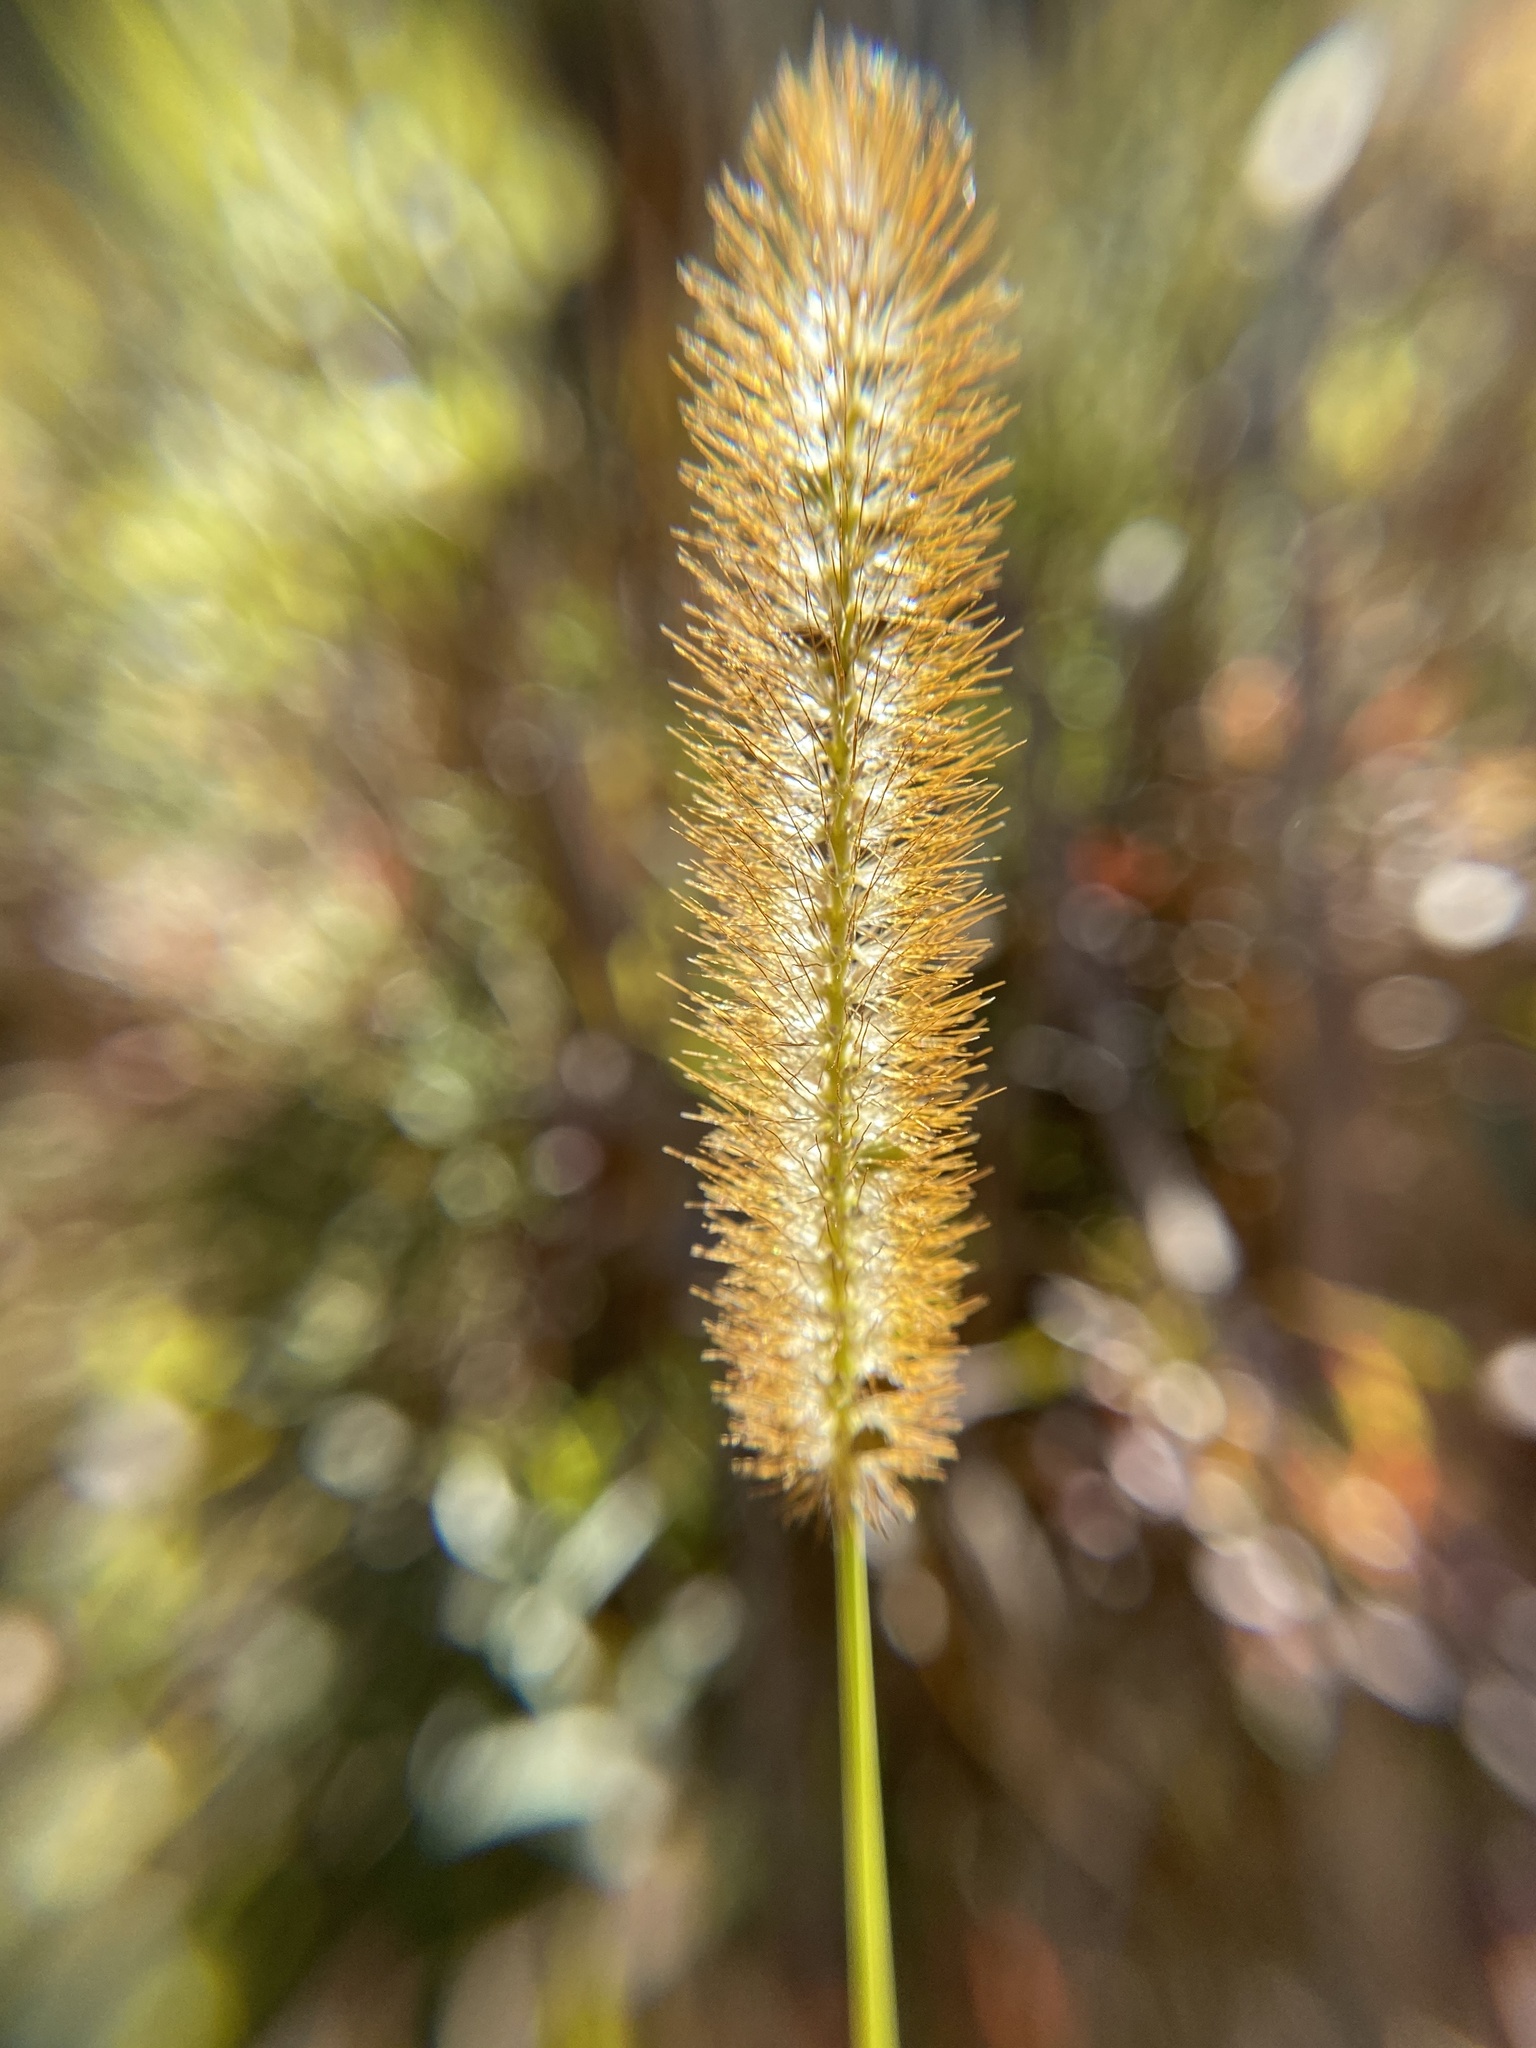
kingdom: Plantae
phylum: Tracheophyta
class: Liliopsida
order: Poales
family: Poaceae
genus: Setaria
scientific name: Setaria pumila
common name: Yellow bristle-grass
